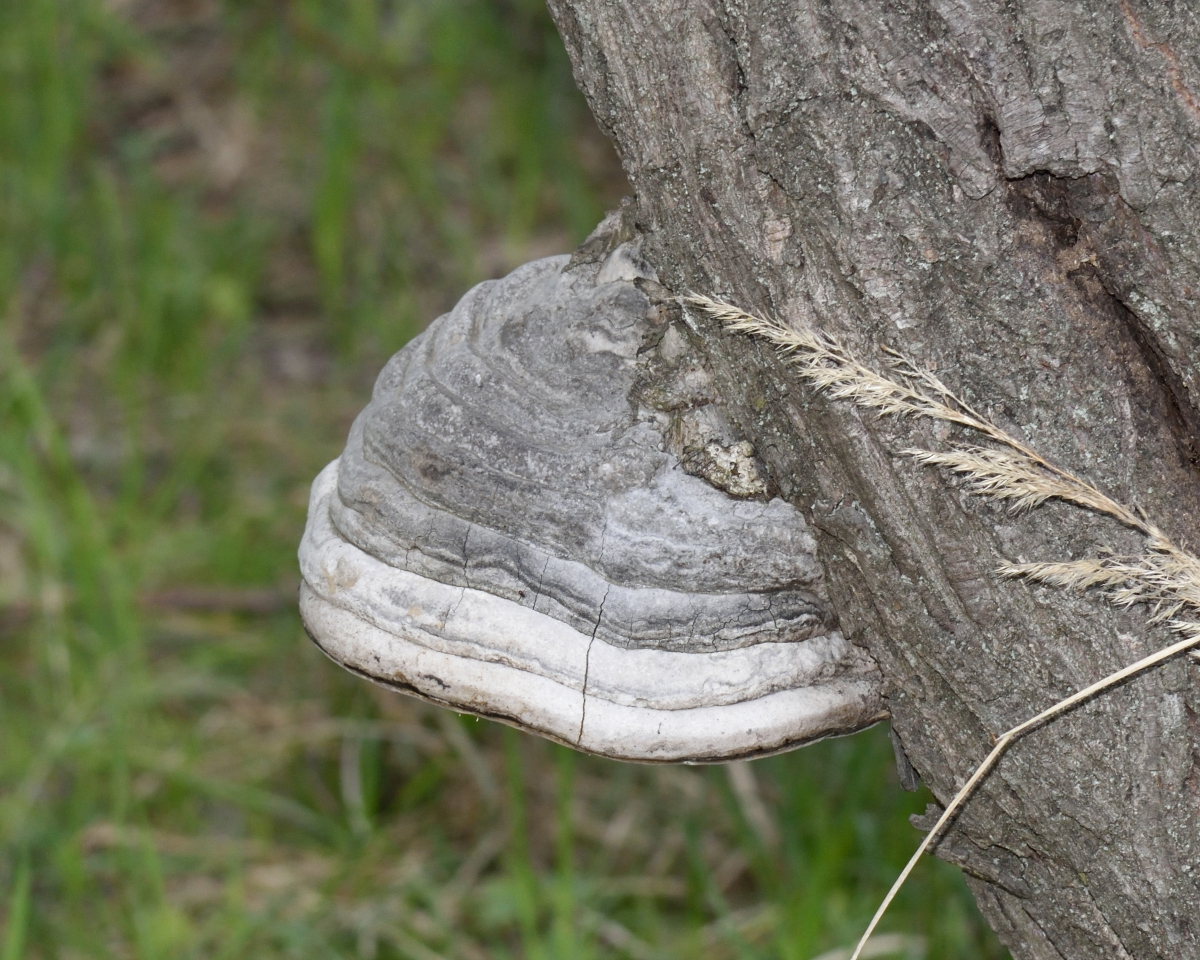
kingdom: Fungi
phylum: Basidiomycota
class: Agaricomycetes
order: Polyporales
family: Polyporaceae
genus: Fomes
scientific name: Fomes fomentarius
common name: Hoof fungus
